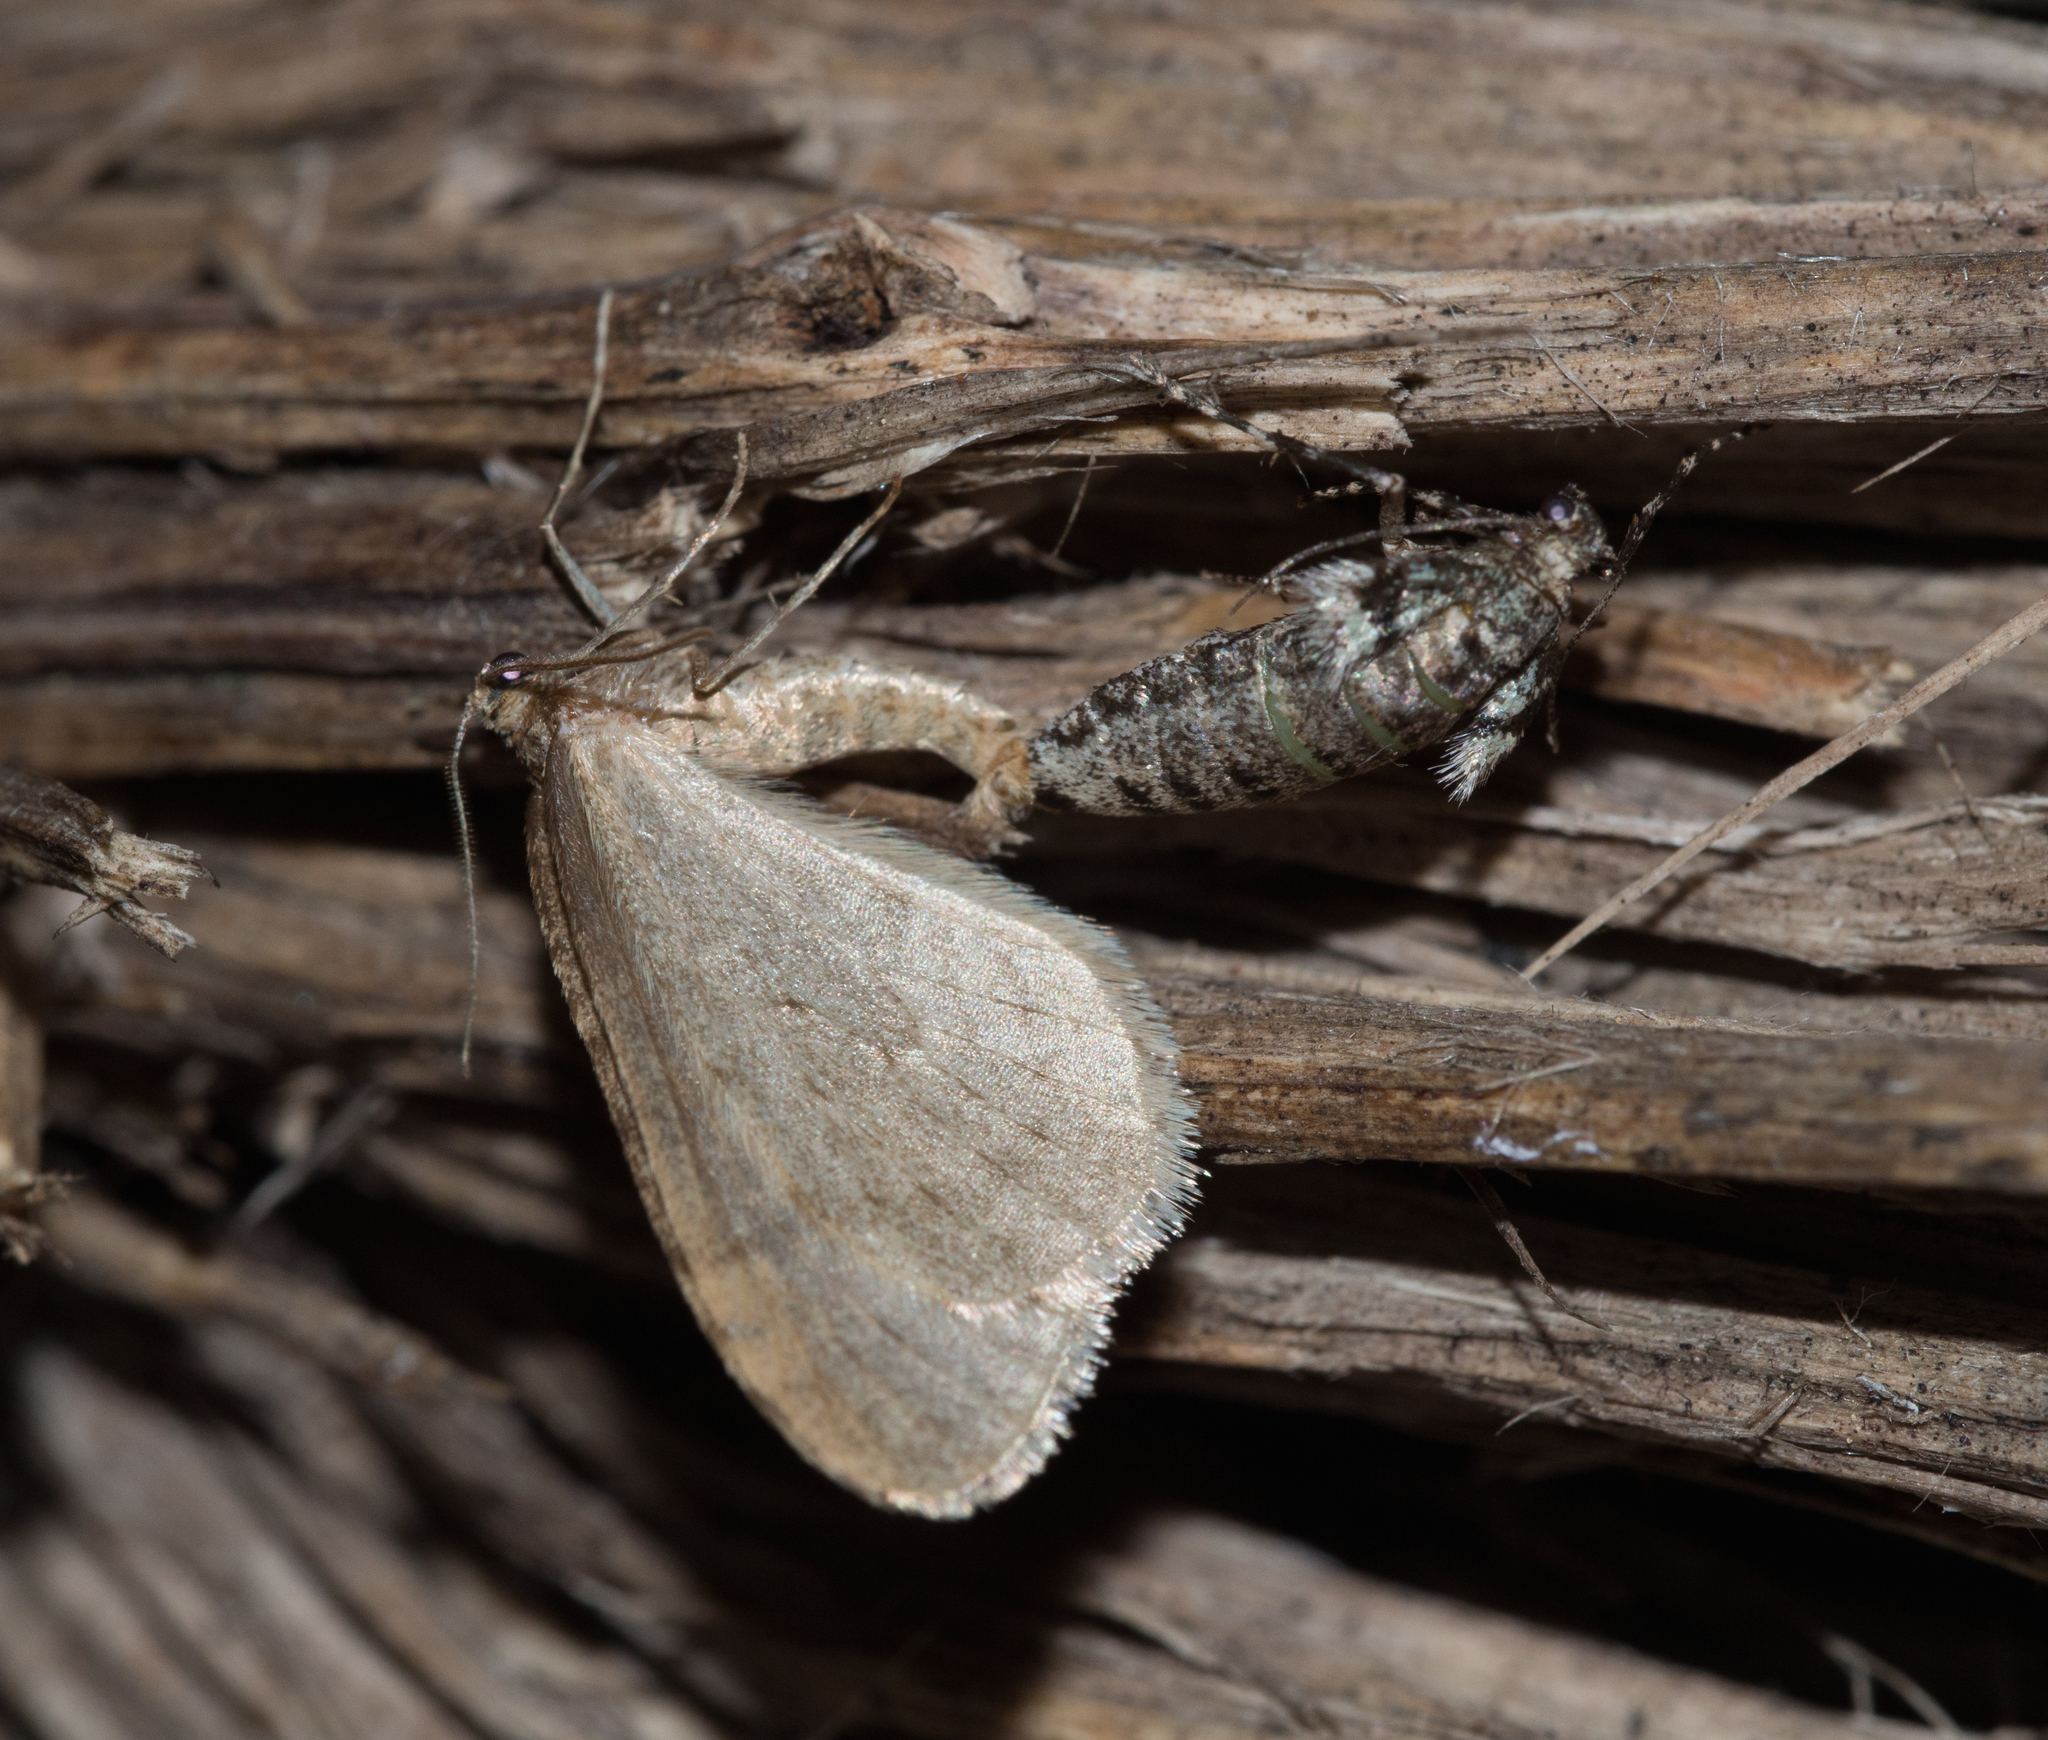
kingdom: Animalia
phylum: Arthropoda
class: Insecta
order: Lepidoptera
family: Geometridae
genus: Operophtera
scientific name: Operophtera brumata
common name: Winter moth
